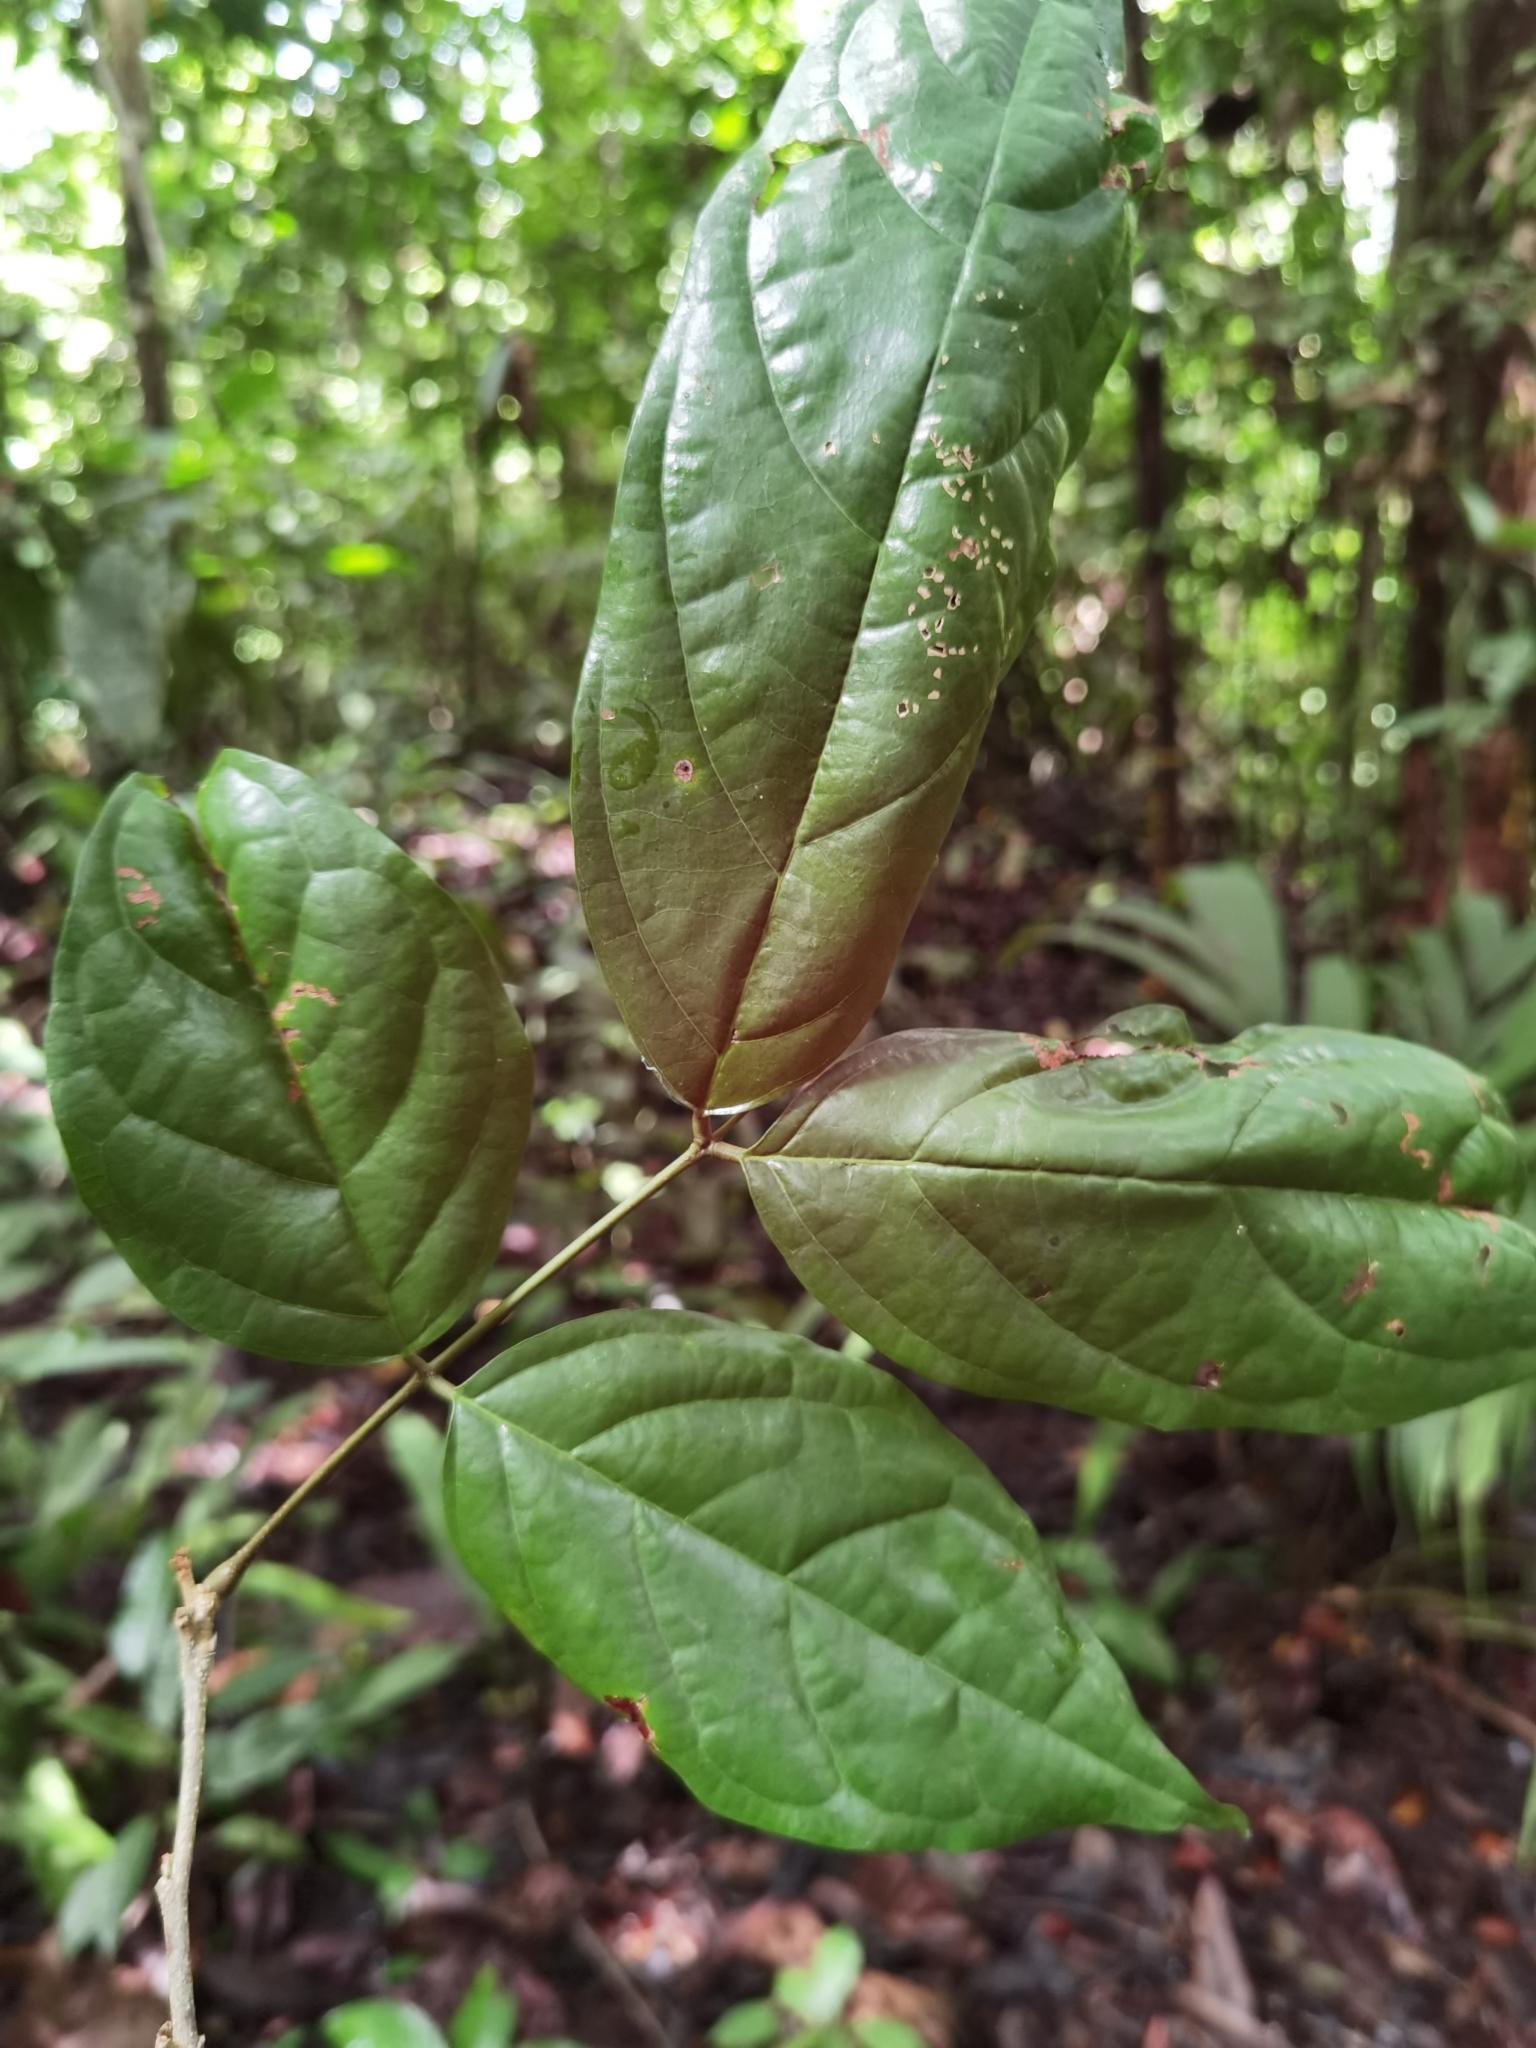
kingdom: Plantae
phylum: Tracheophyta
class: Magnoliopsida
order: Fabales
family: Fabaceae
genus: Fairchildia
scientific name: Fairchildia panamensis
